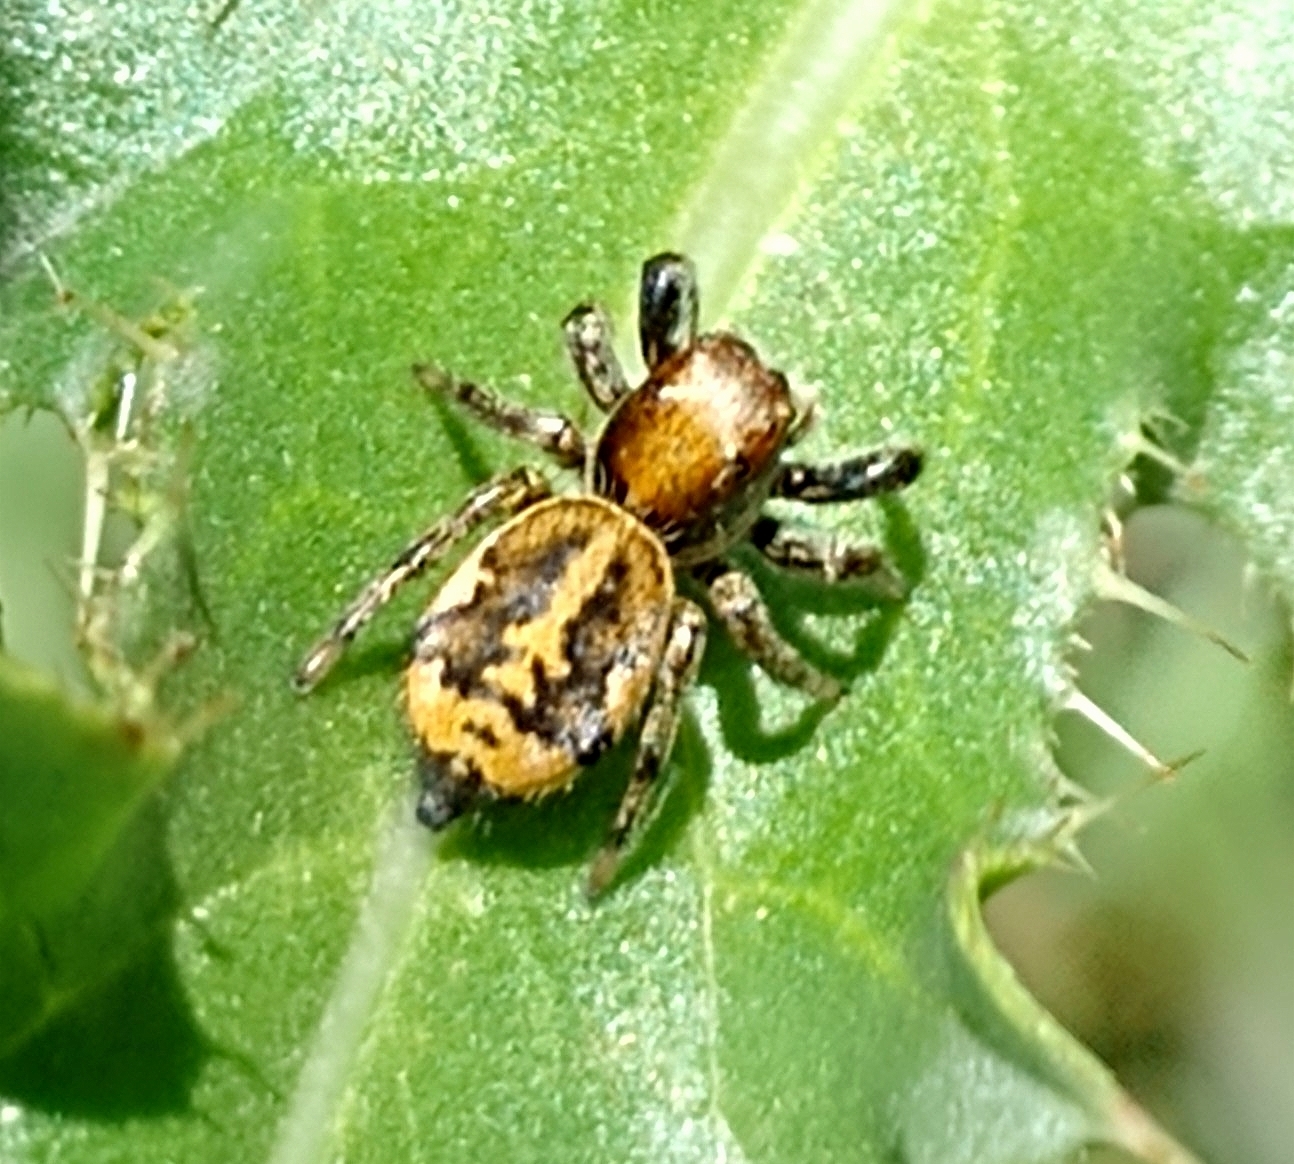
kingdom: Animalia
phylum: Arthropoda
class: Arachnida
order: Araneae
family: Salticidae
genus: Phiale
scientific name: Phiale roburifoliata
